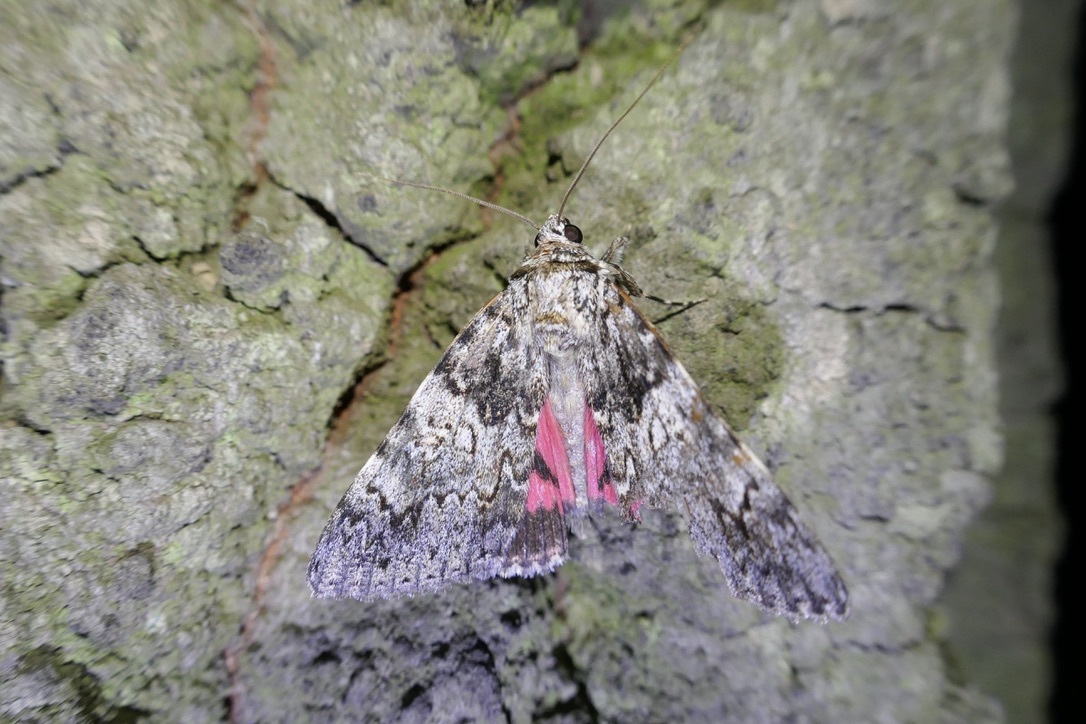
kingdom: Animalia
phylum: Arthropoda
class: Insecta
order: Lepidoptera
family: Erebidae
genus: Catocala
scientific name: Catocala promissa
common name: Light crimson underwing
